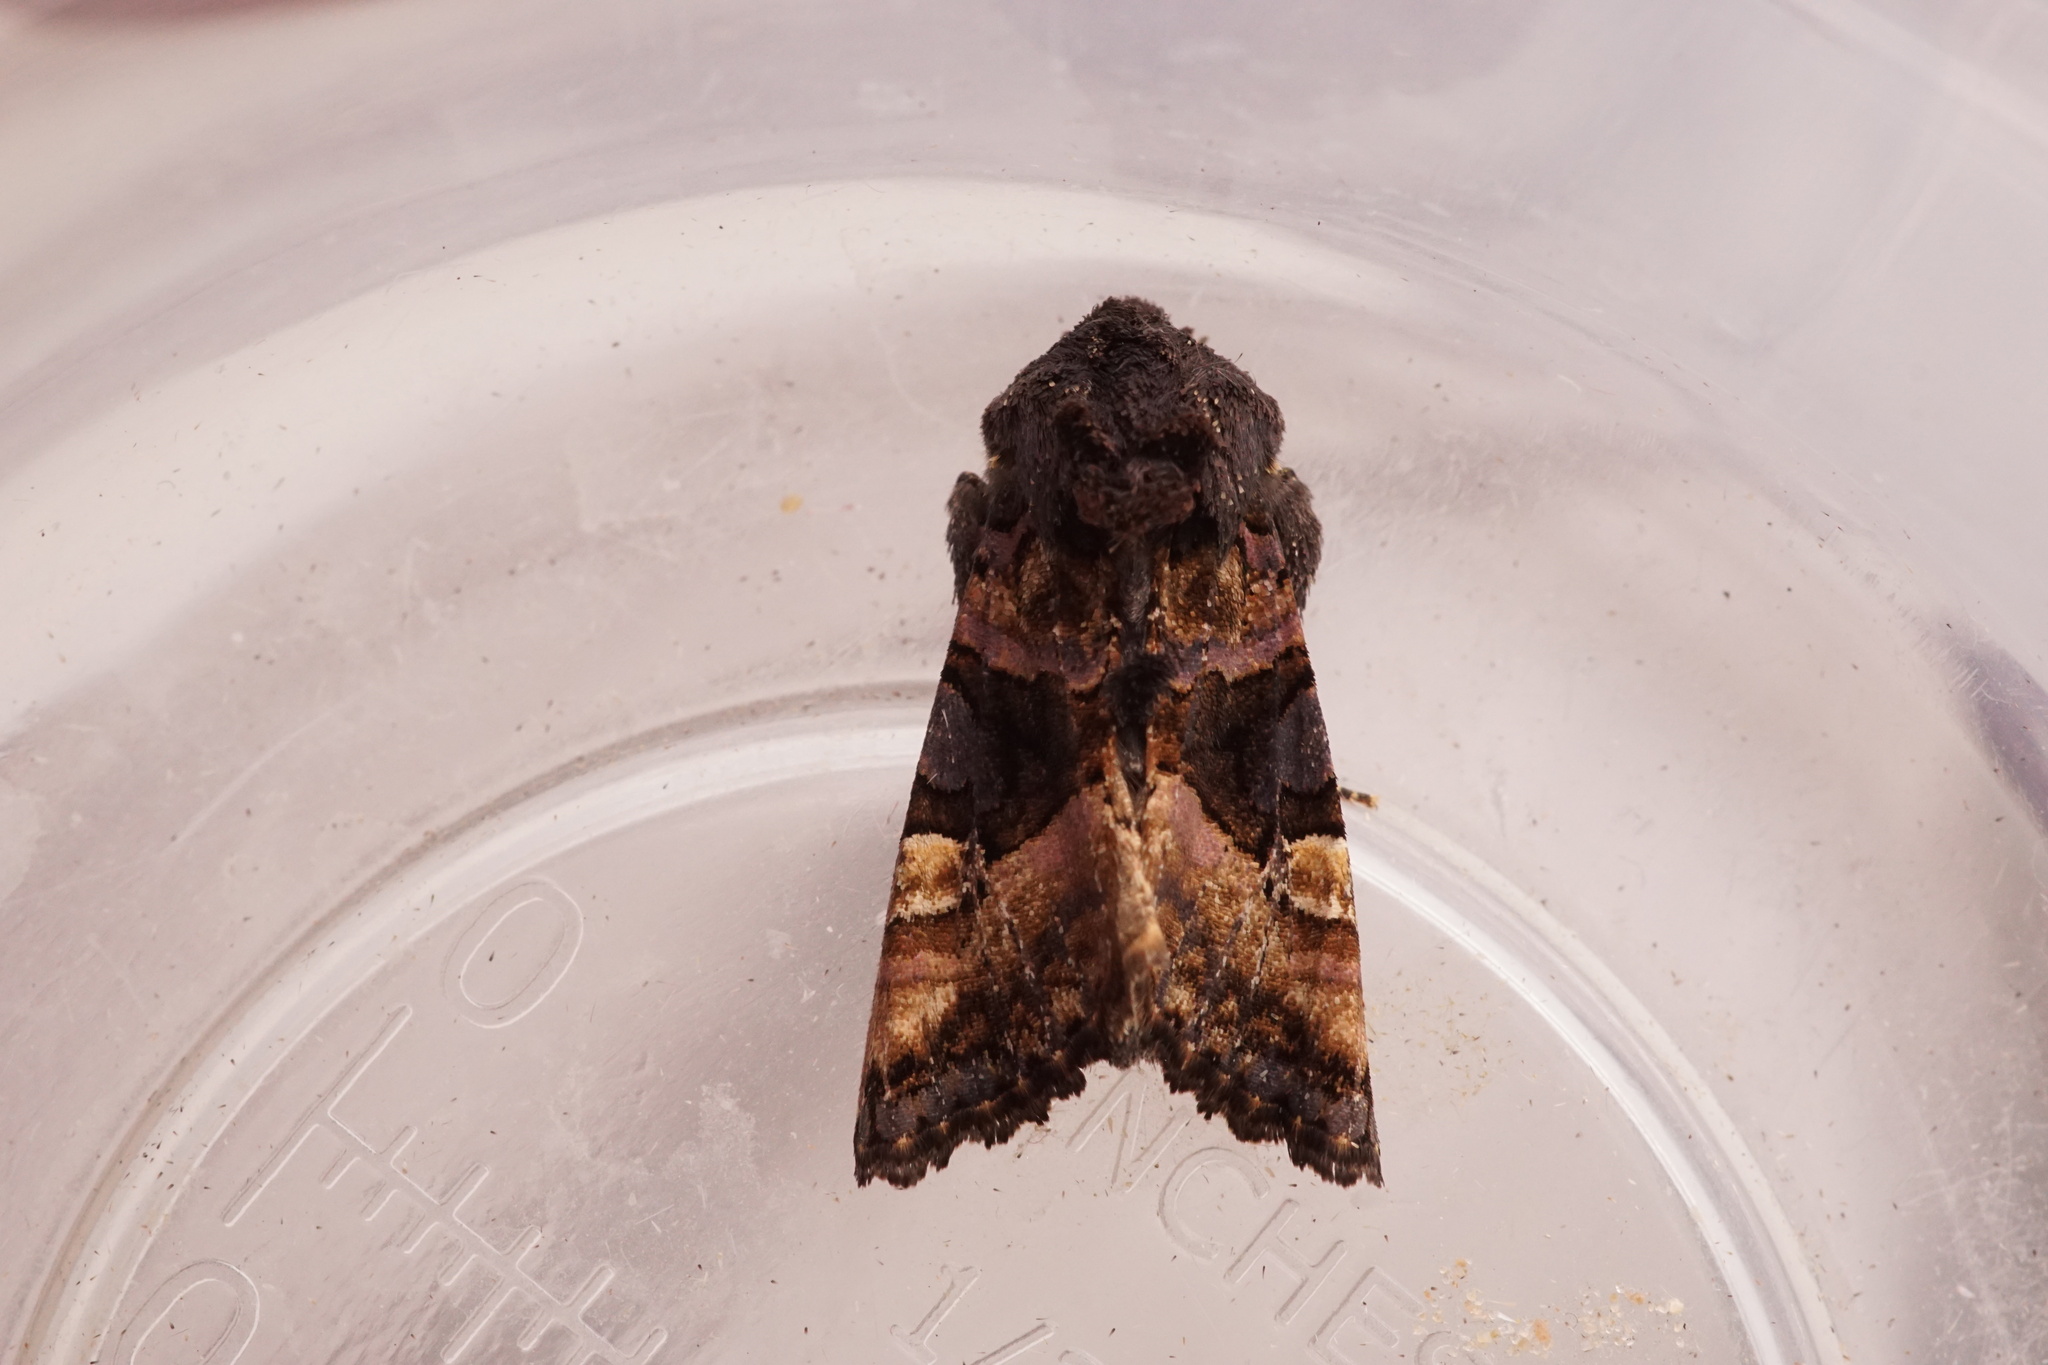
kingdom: Animalia
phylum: Arthropoda
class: Insecta
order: Lepidoptera
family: Noctuidae
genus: Euplexia
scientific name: Euplexia lucipara
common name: Small angle shades
